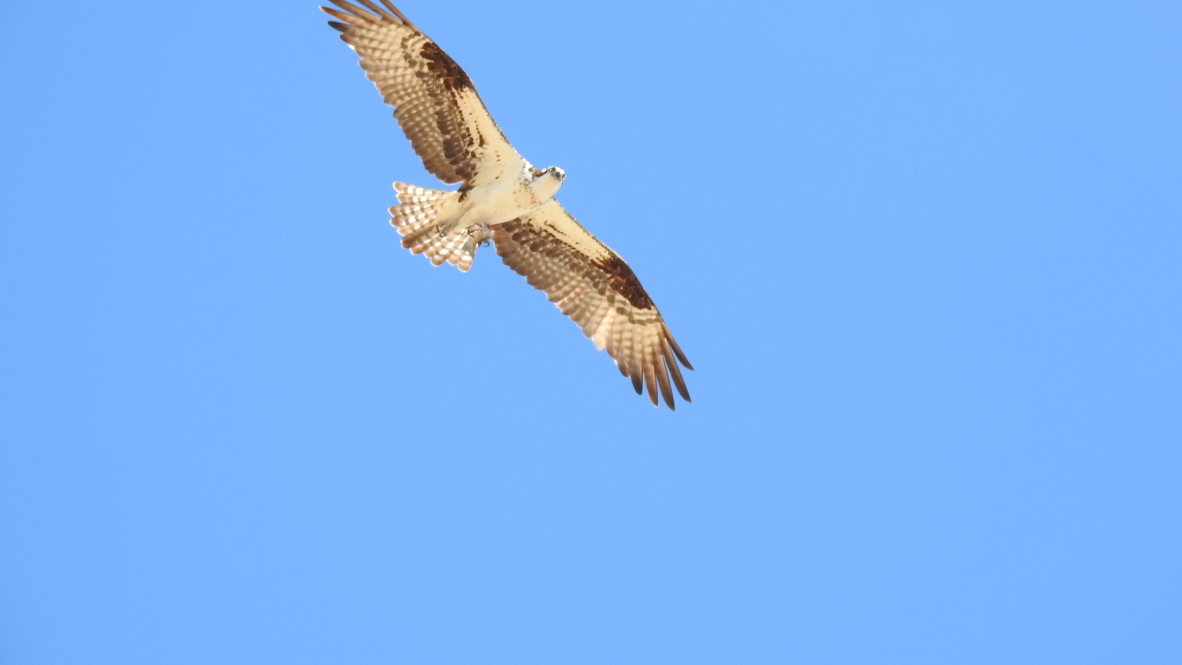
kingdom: Animalia
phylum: Chordata
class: Aves
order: Accipitriformes
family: Pandionidae
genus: Pandion
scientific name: Pandion haliaetus
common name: Osprey
